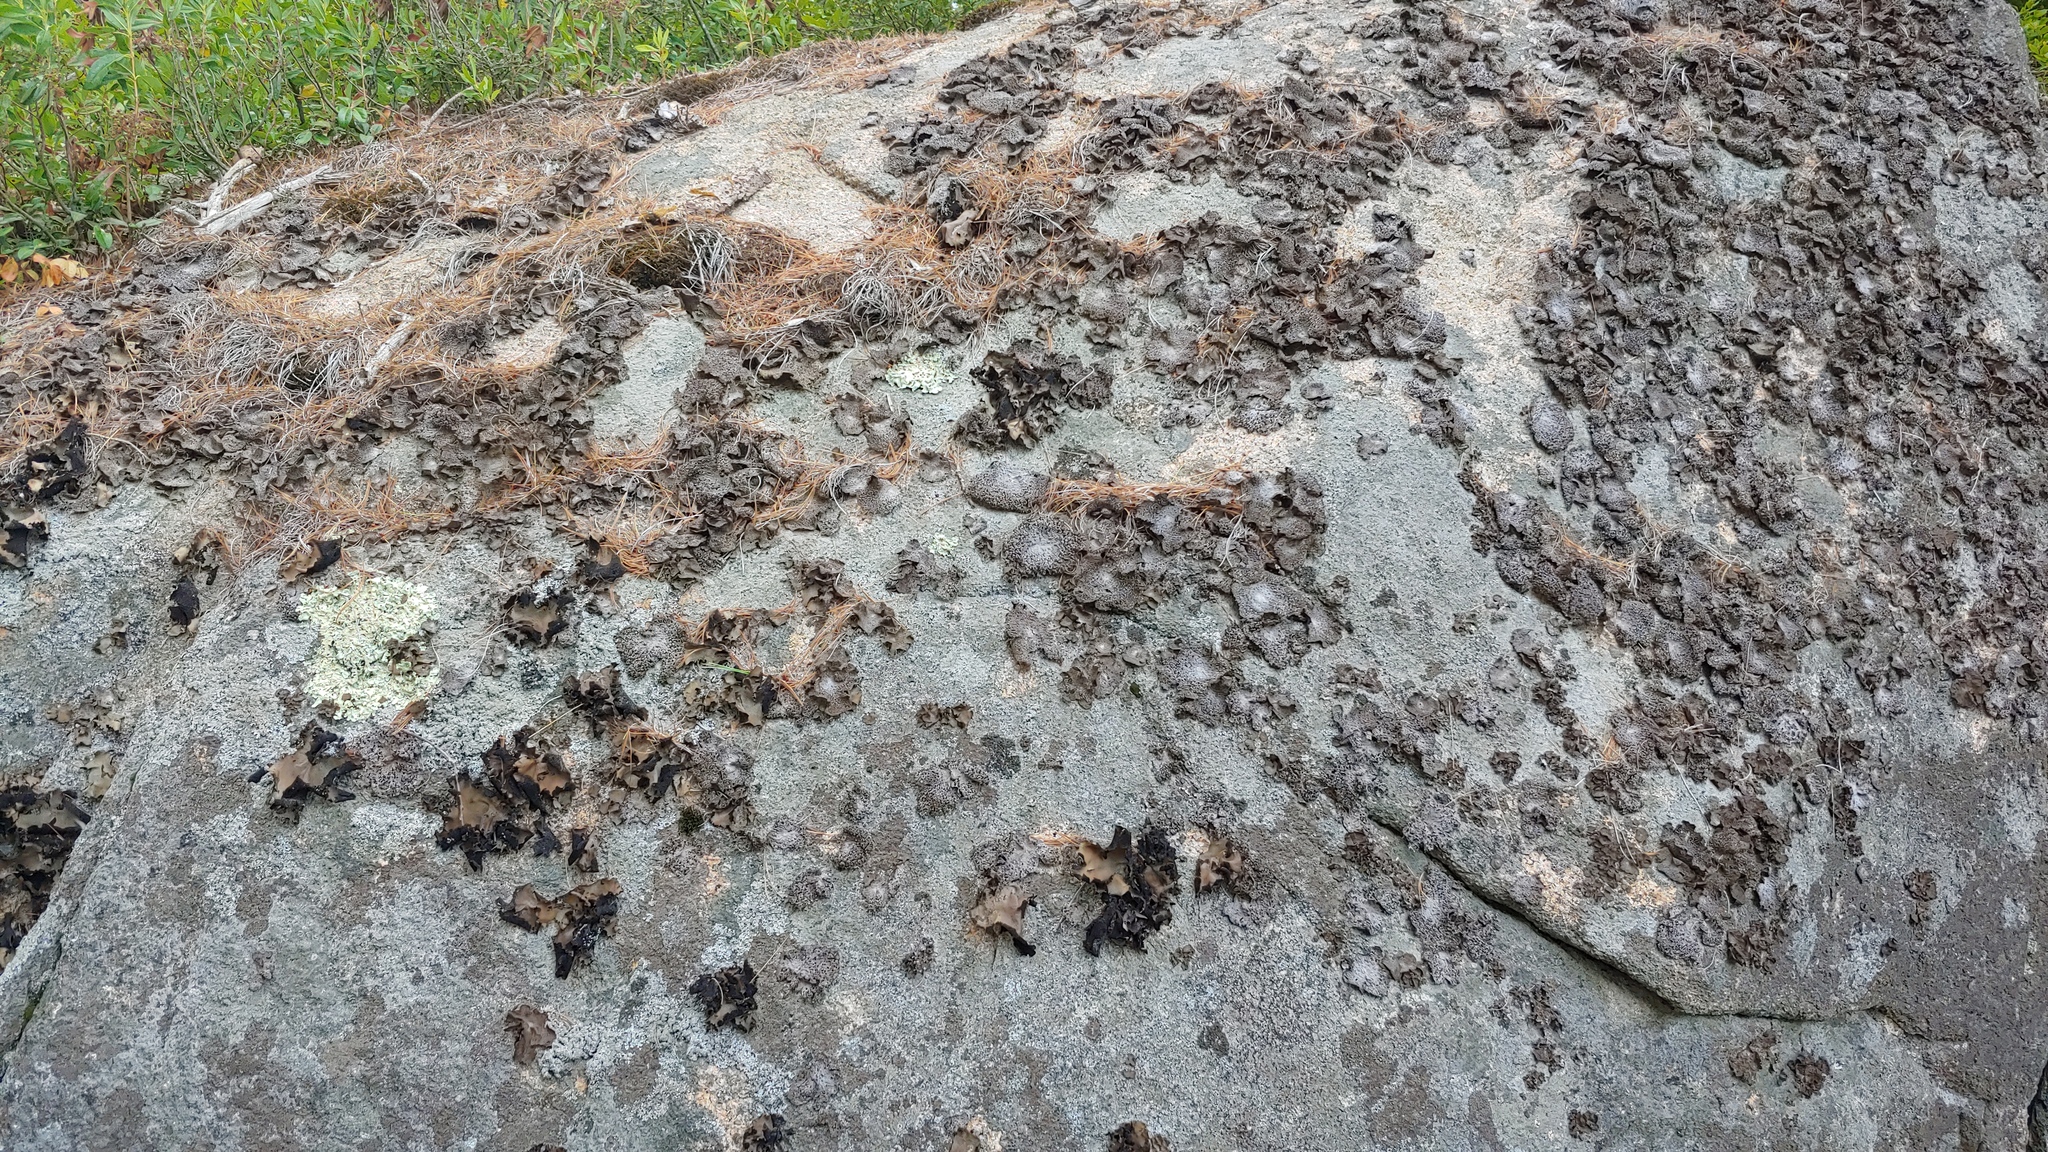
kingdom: Fungi
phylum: Ascomycota
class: Lecanoromycetes
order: Umbilicariales
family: Umbilicariaceae
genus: Lasallia
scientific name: Lasallia papulosa
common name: Common toadskin lichen
